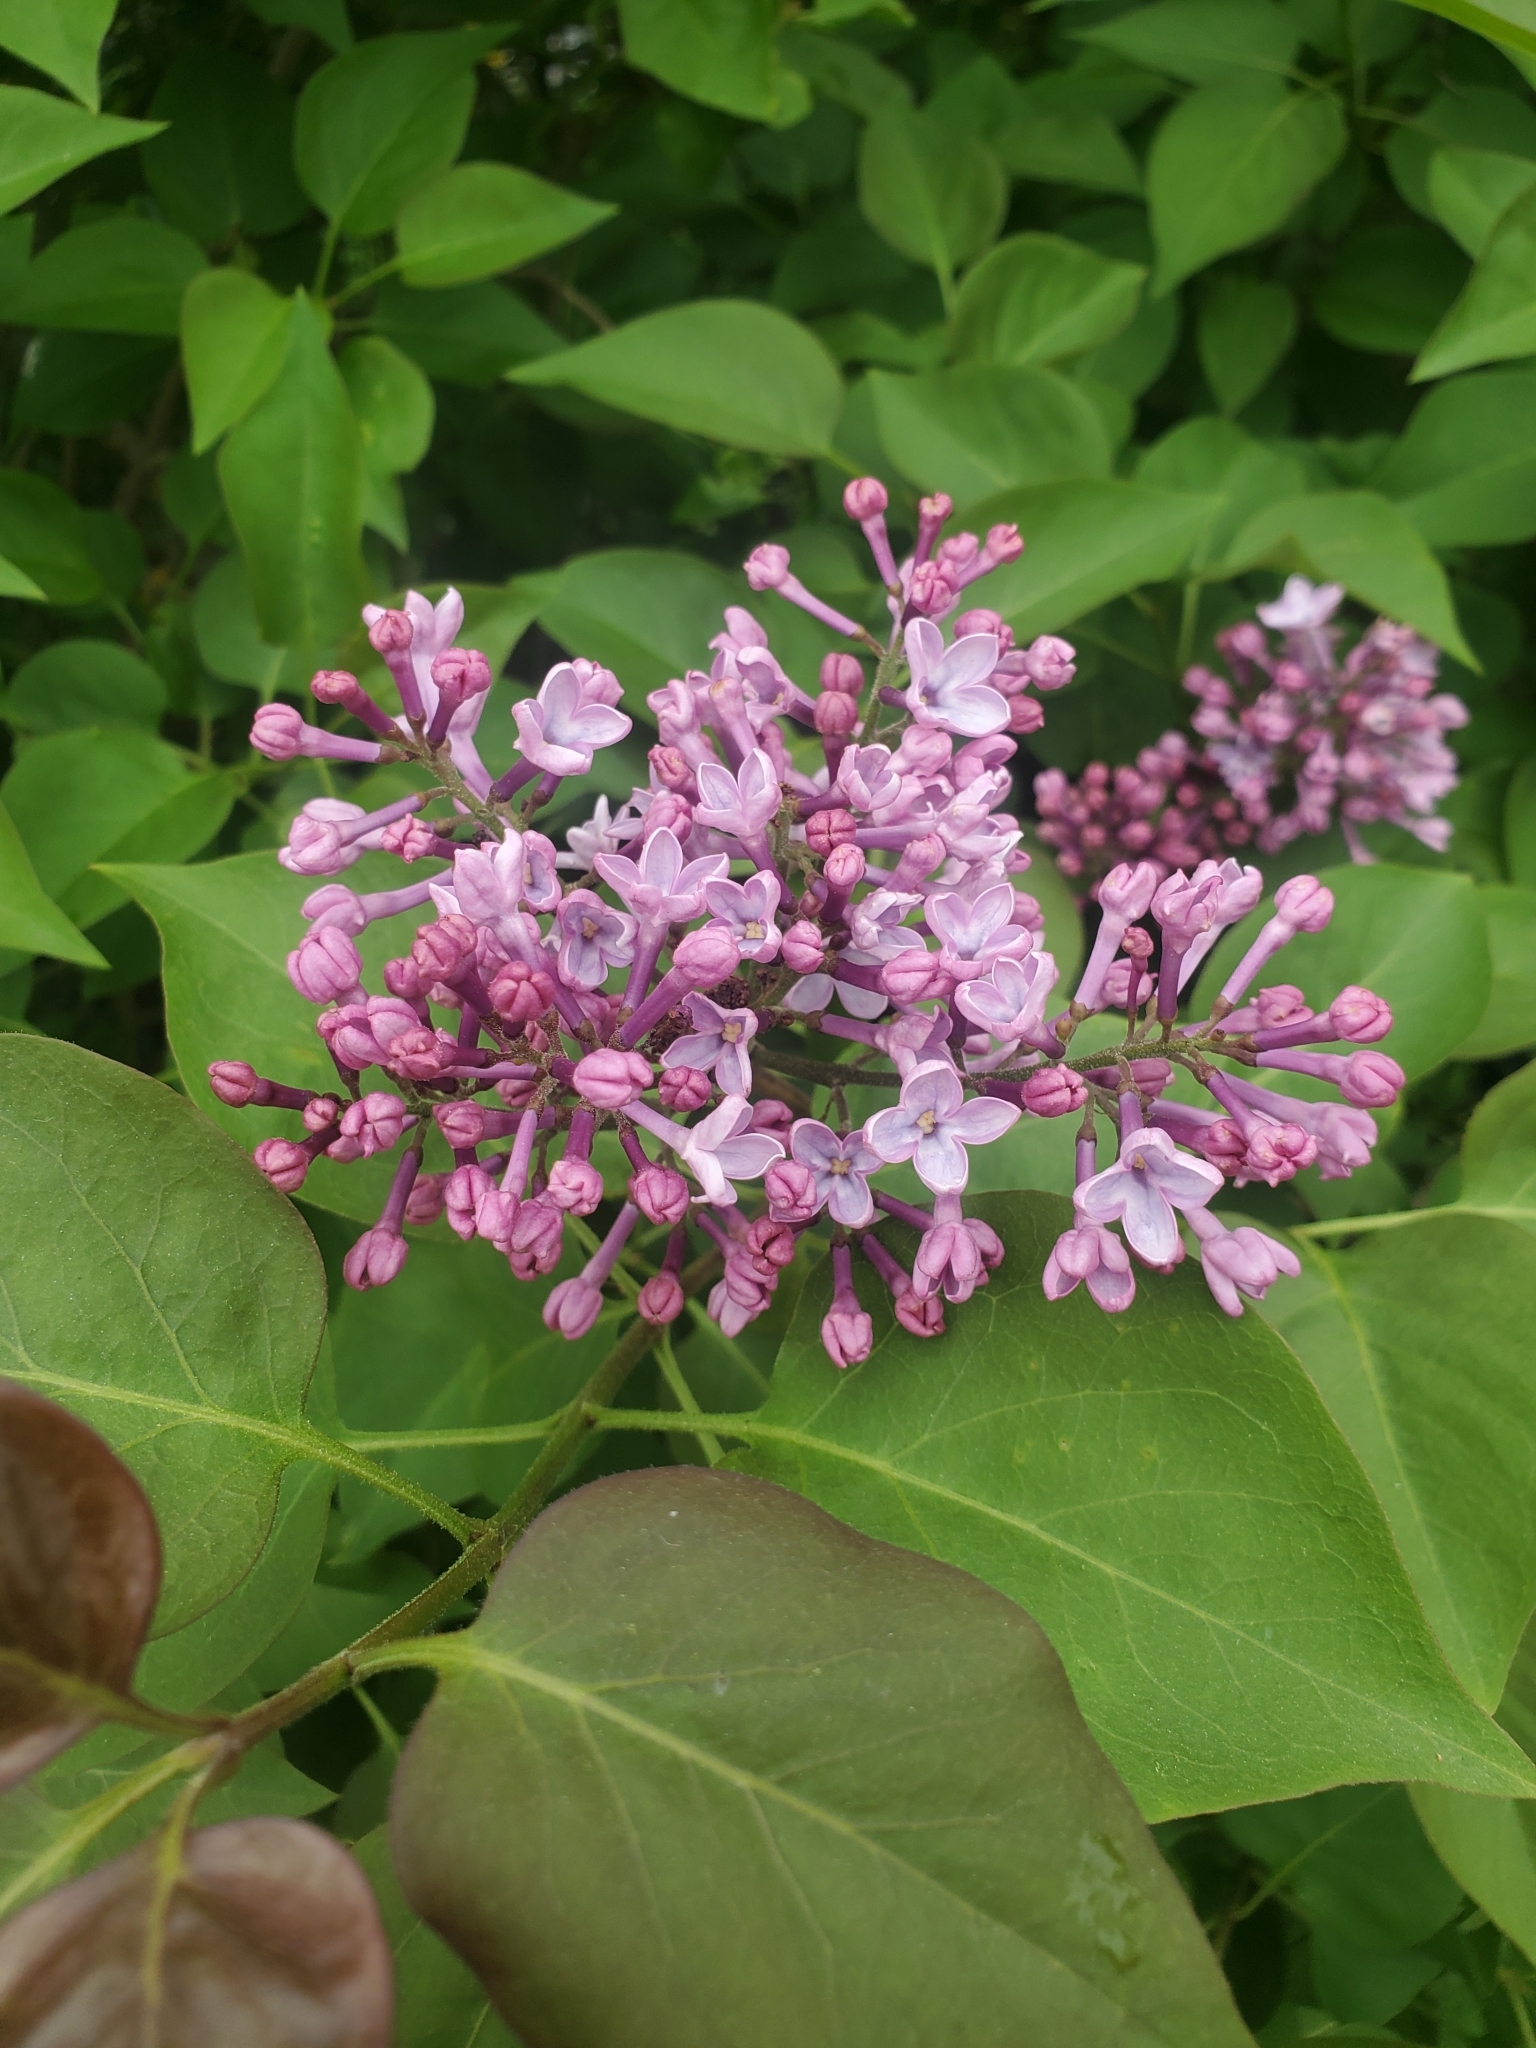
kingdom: Plantae
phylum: Tracheophyta
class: Magnoliopsida
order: Lamiales
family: Oleaceae
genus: Syringa
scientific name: Syringa vulgaris
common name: Common lilac
